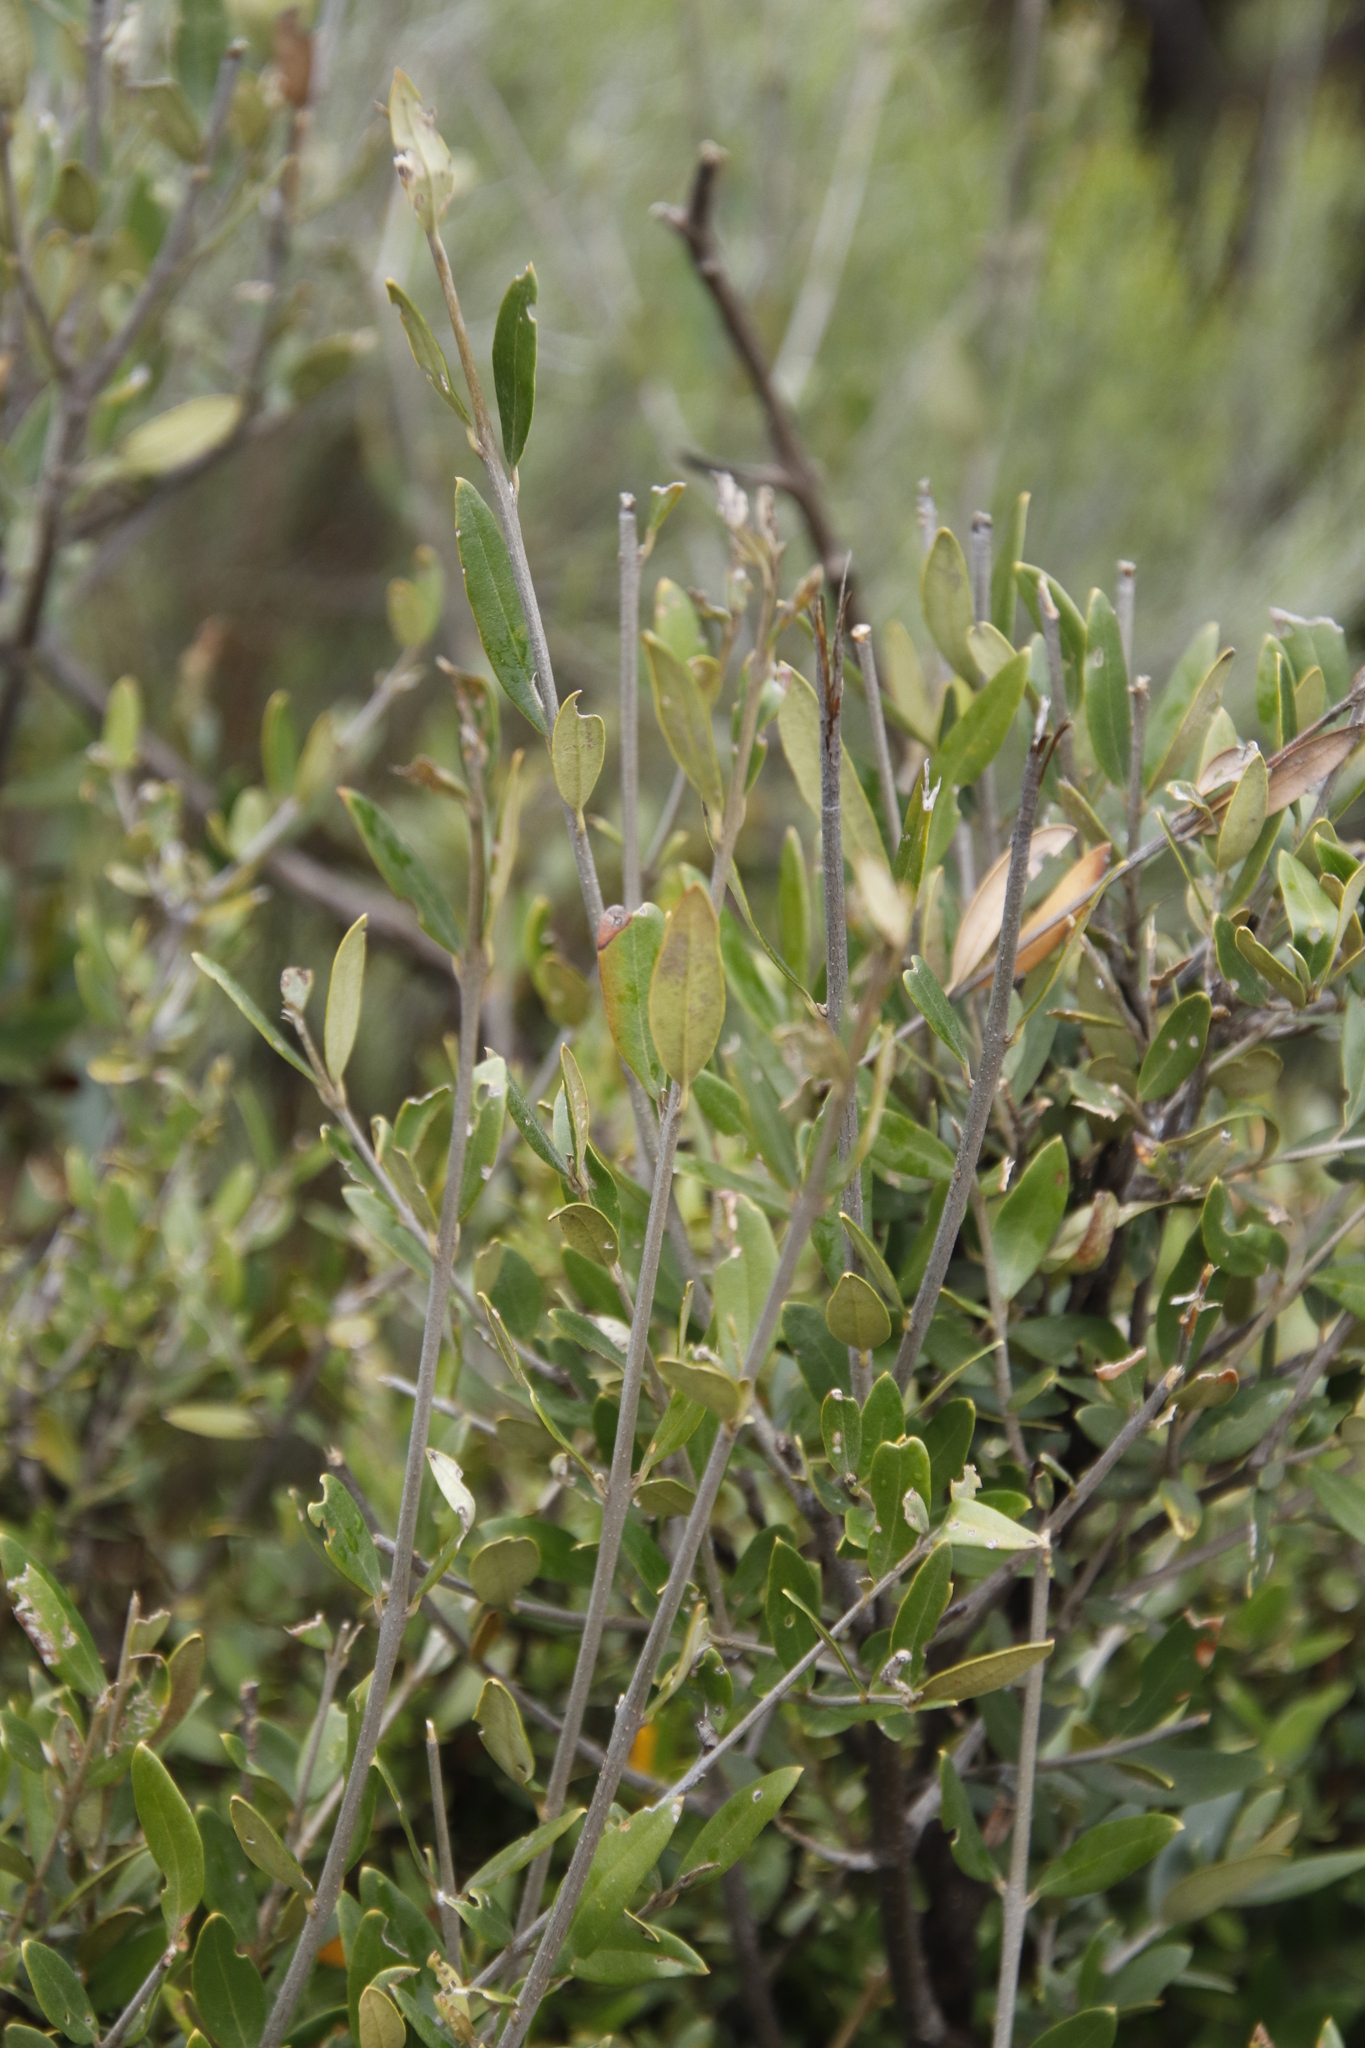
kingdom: Plantae
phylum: Tracheophyta
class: Magnoliopsida
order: Lamiales
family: Oleaceae
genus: Olea
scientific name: Olea europaea
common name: Olive
